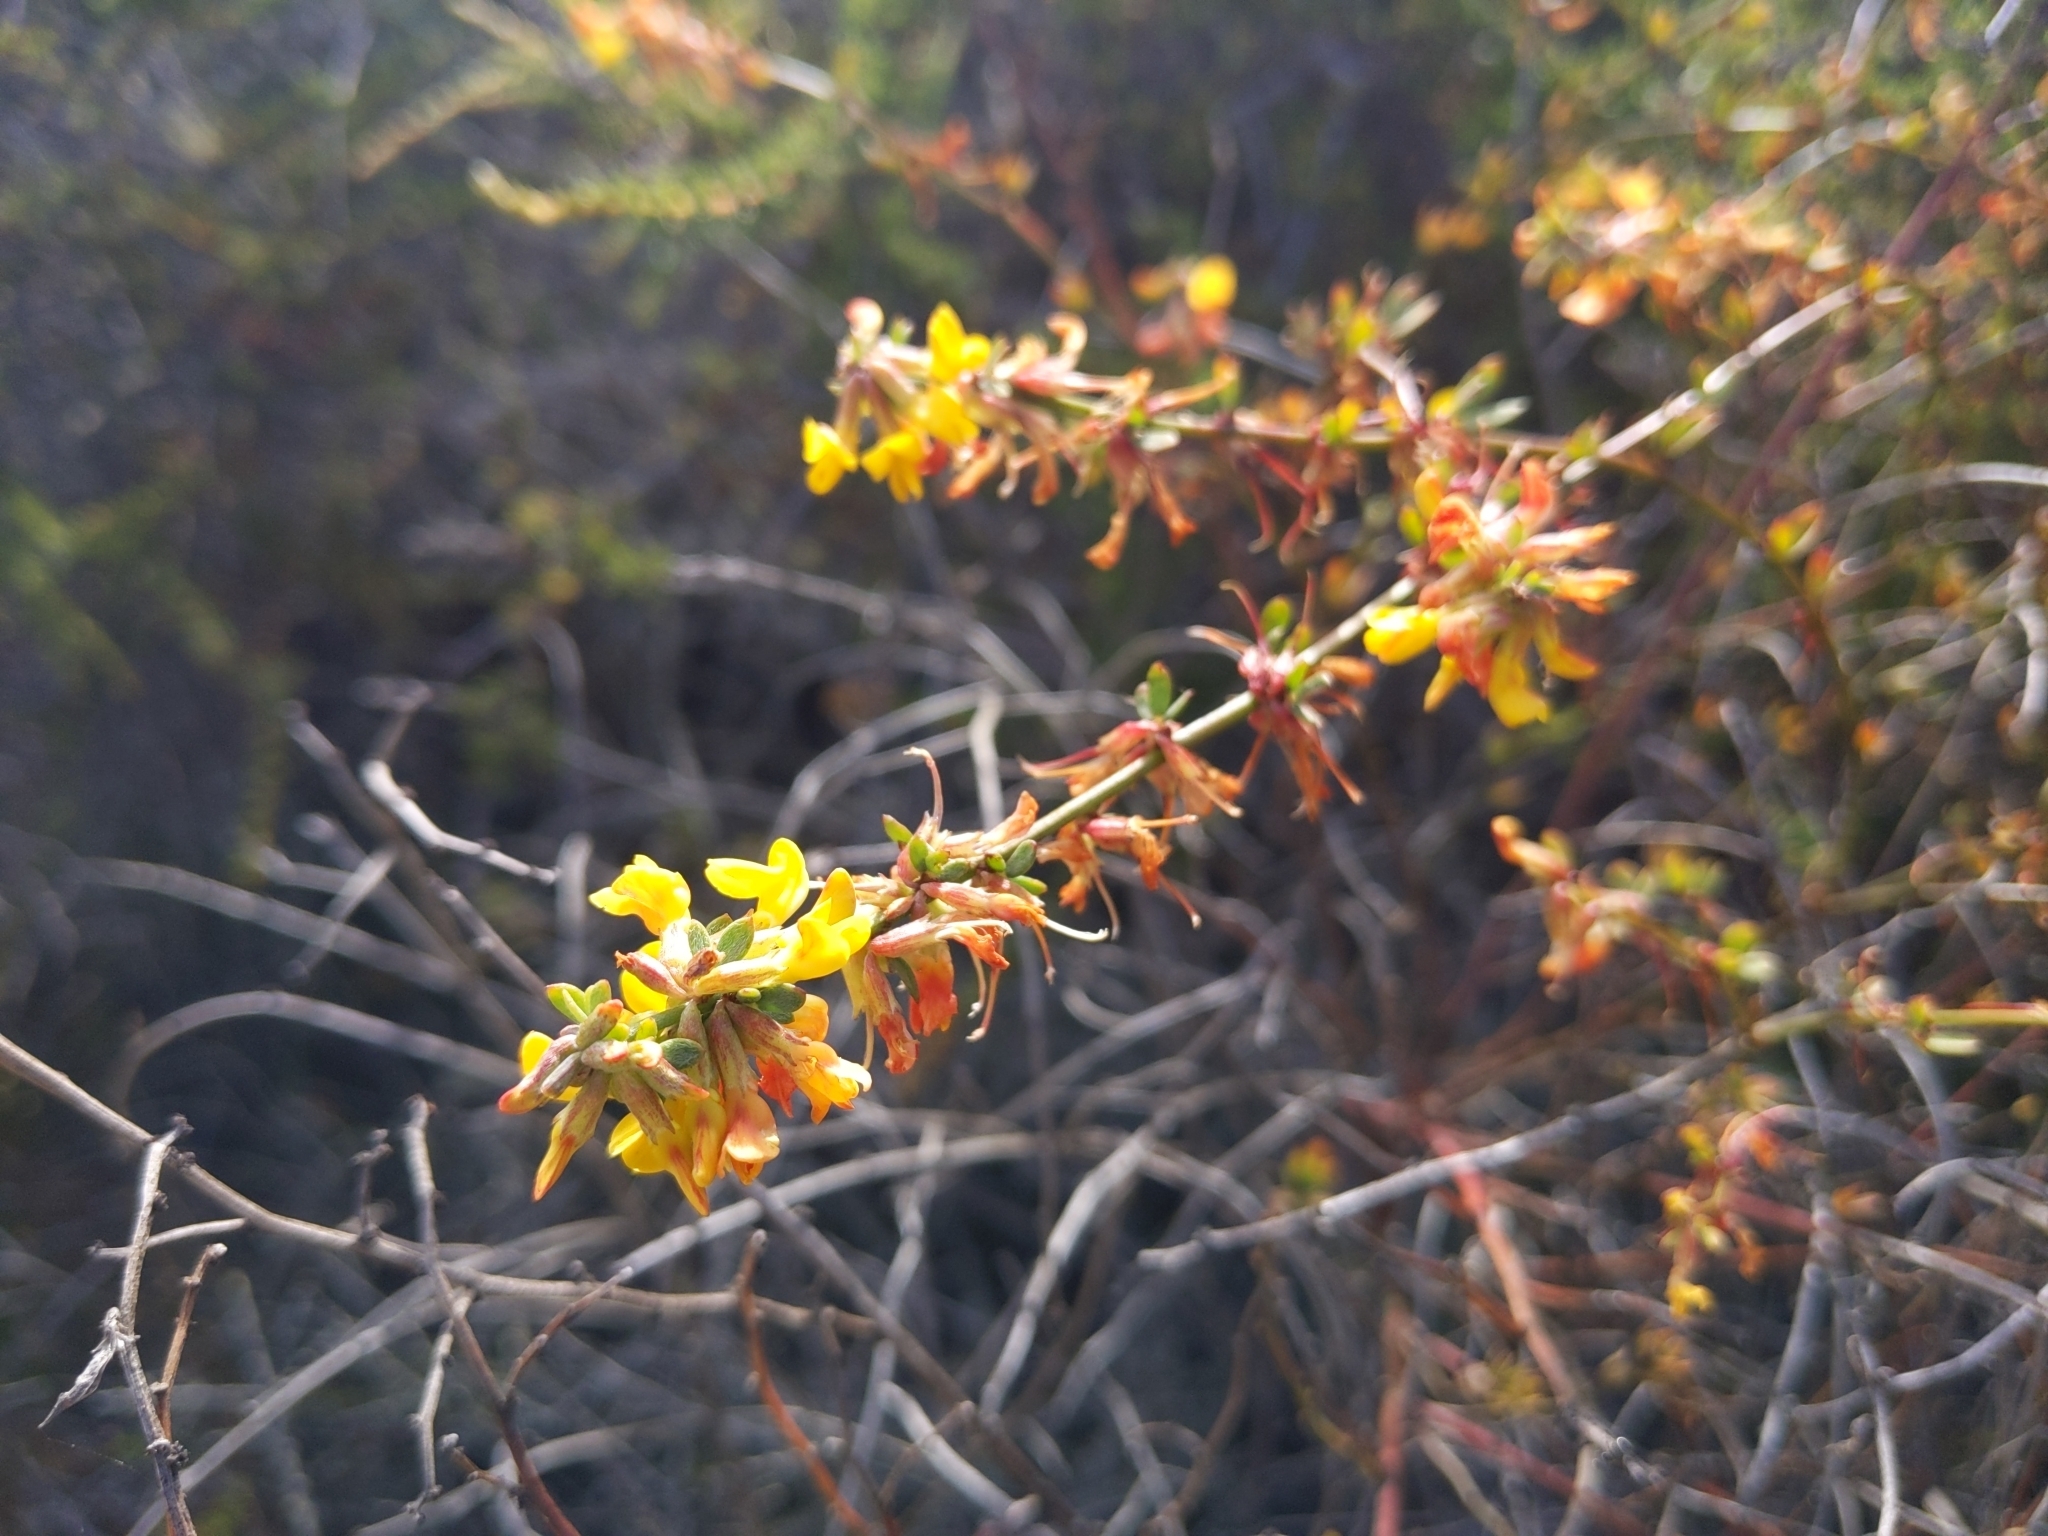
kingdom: Plantae
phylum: Tracheophyta
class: Magnoliopsida
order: Fabales
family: Fabaceae
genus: Acmispon
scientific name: Acmispon glaber
